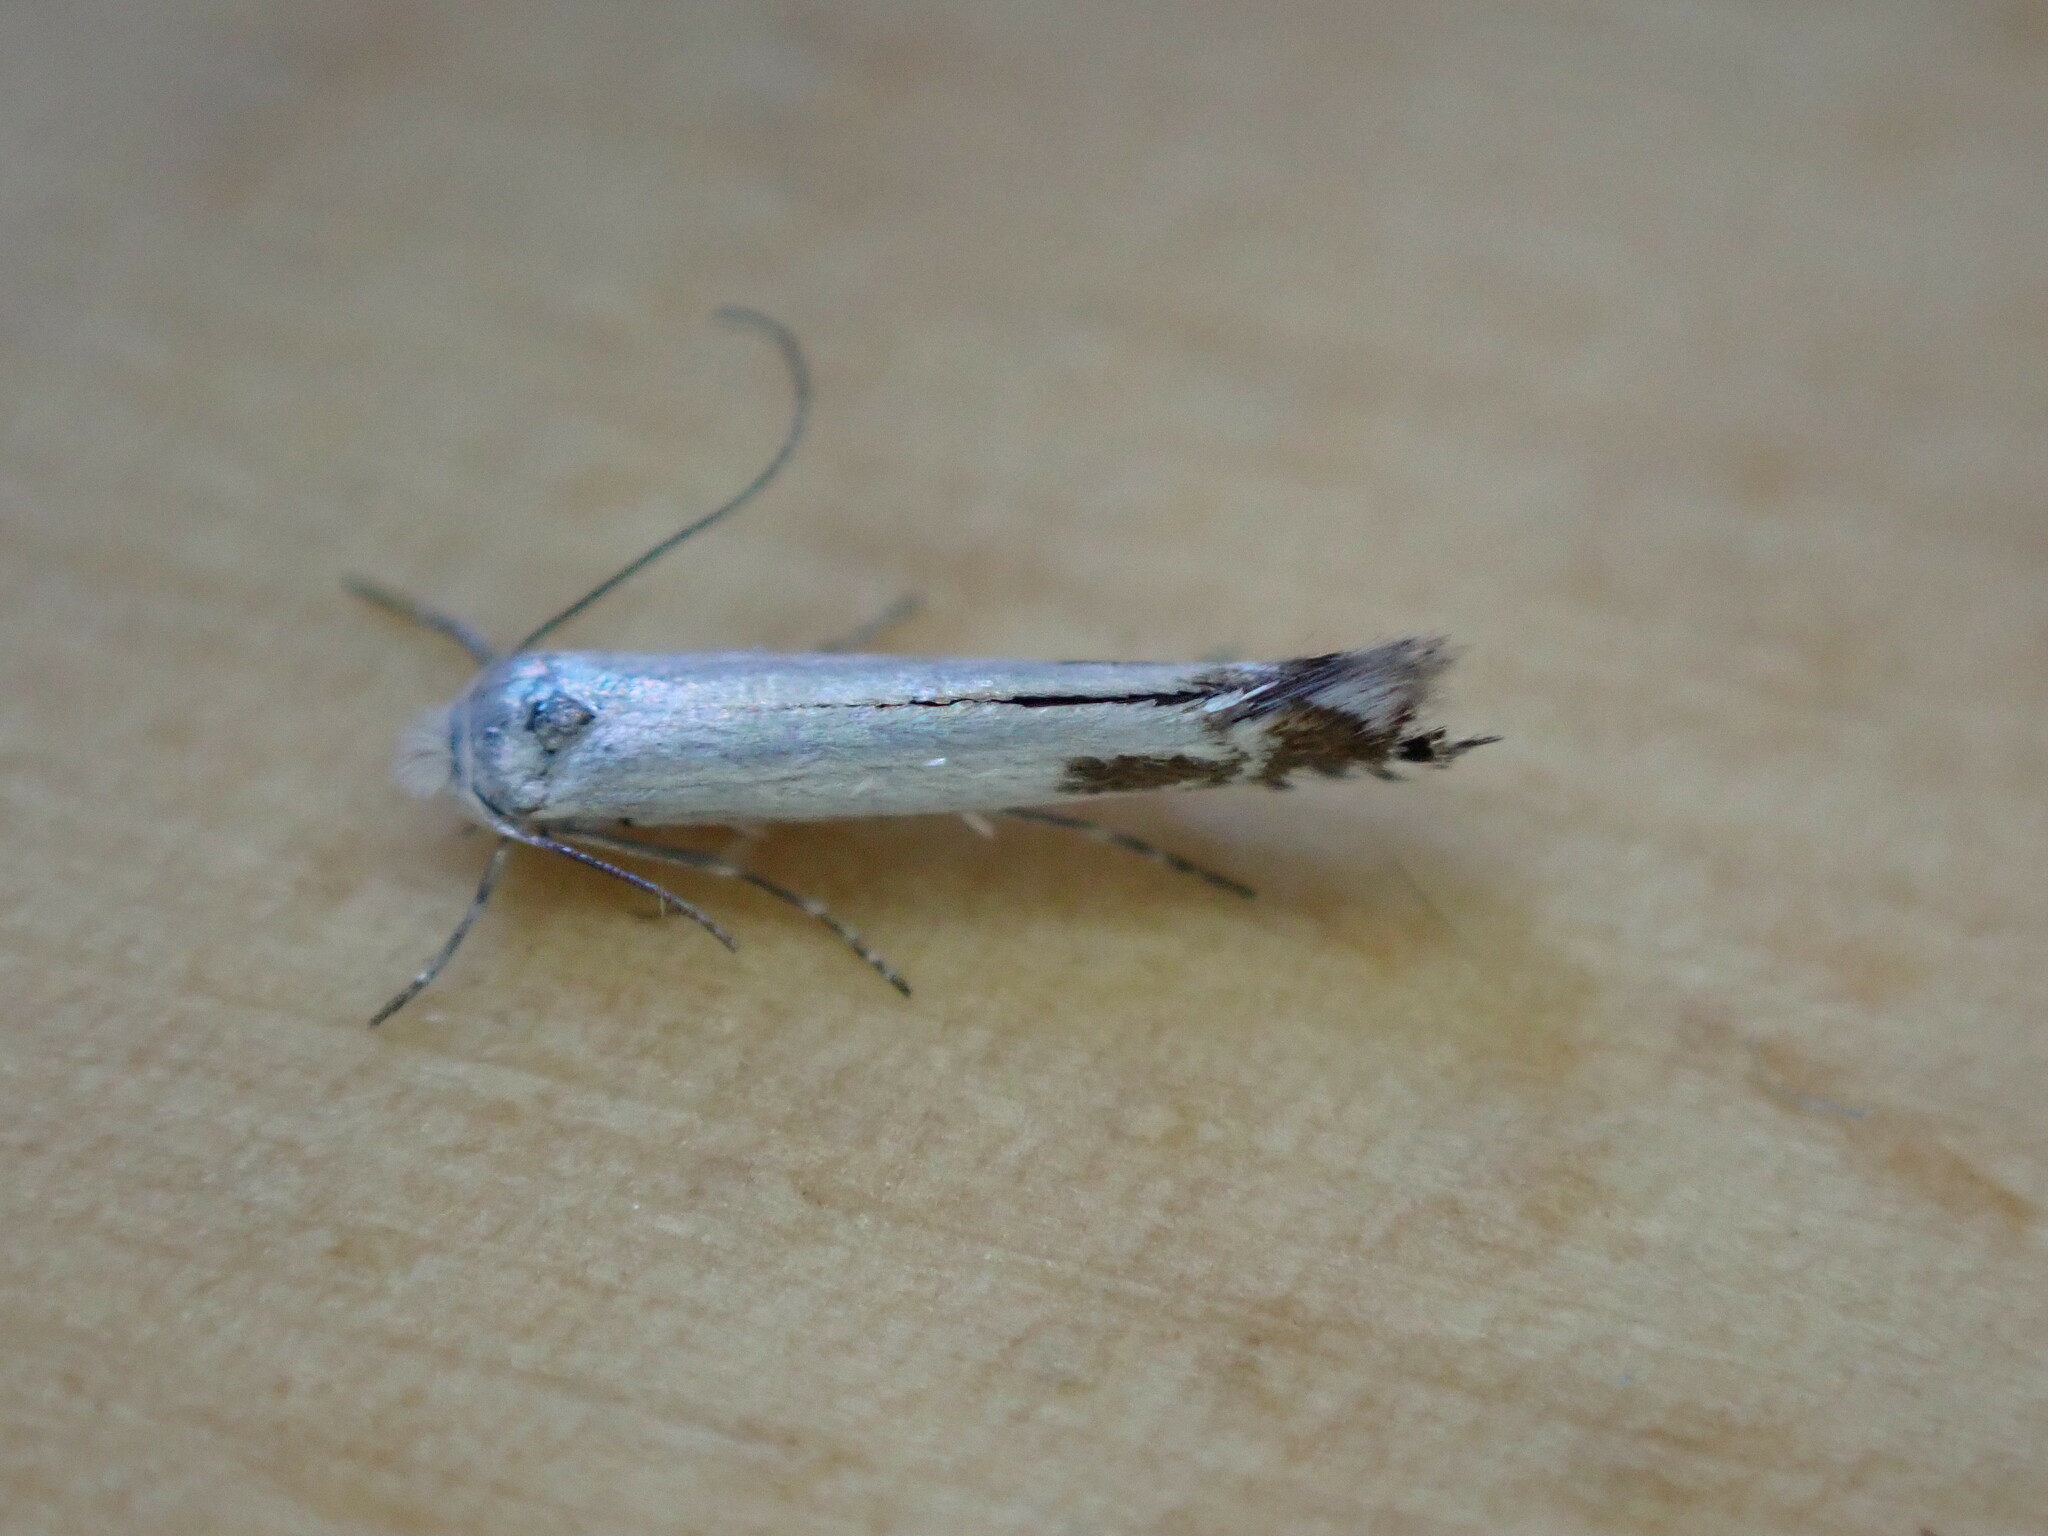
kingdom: Animalia
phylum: Arthropoda
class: Insecta
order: Lepidoptera
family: Lyonetiidae
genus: Lyonetia
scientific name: Lyonetia clerkella
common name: Apple leaf miner
